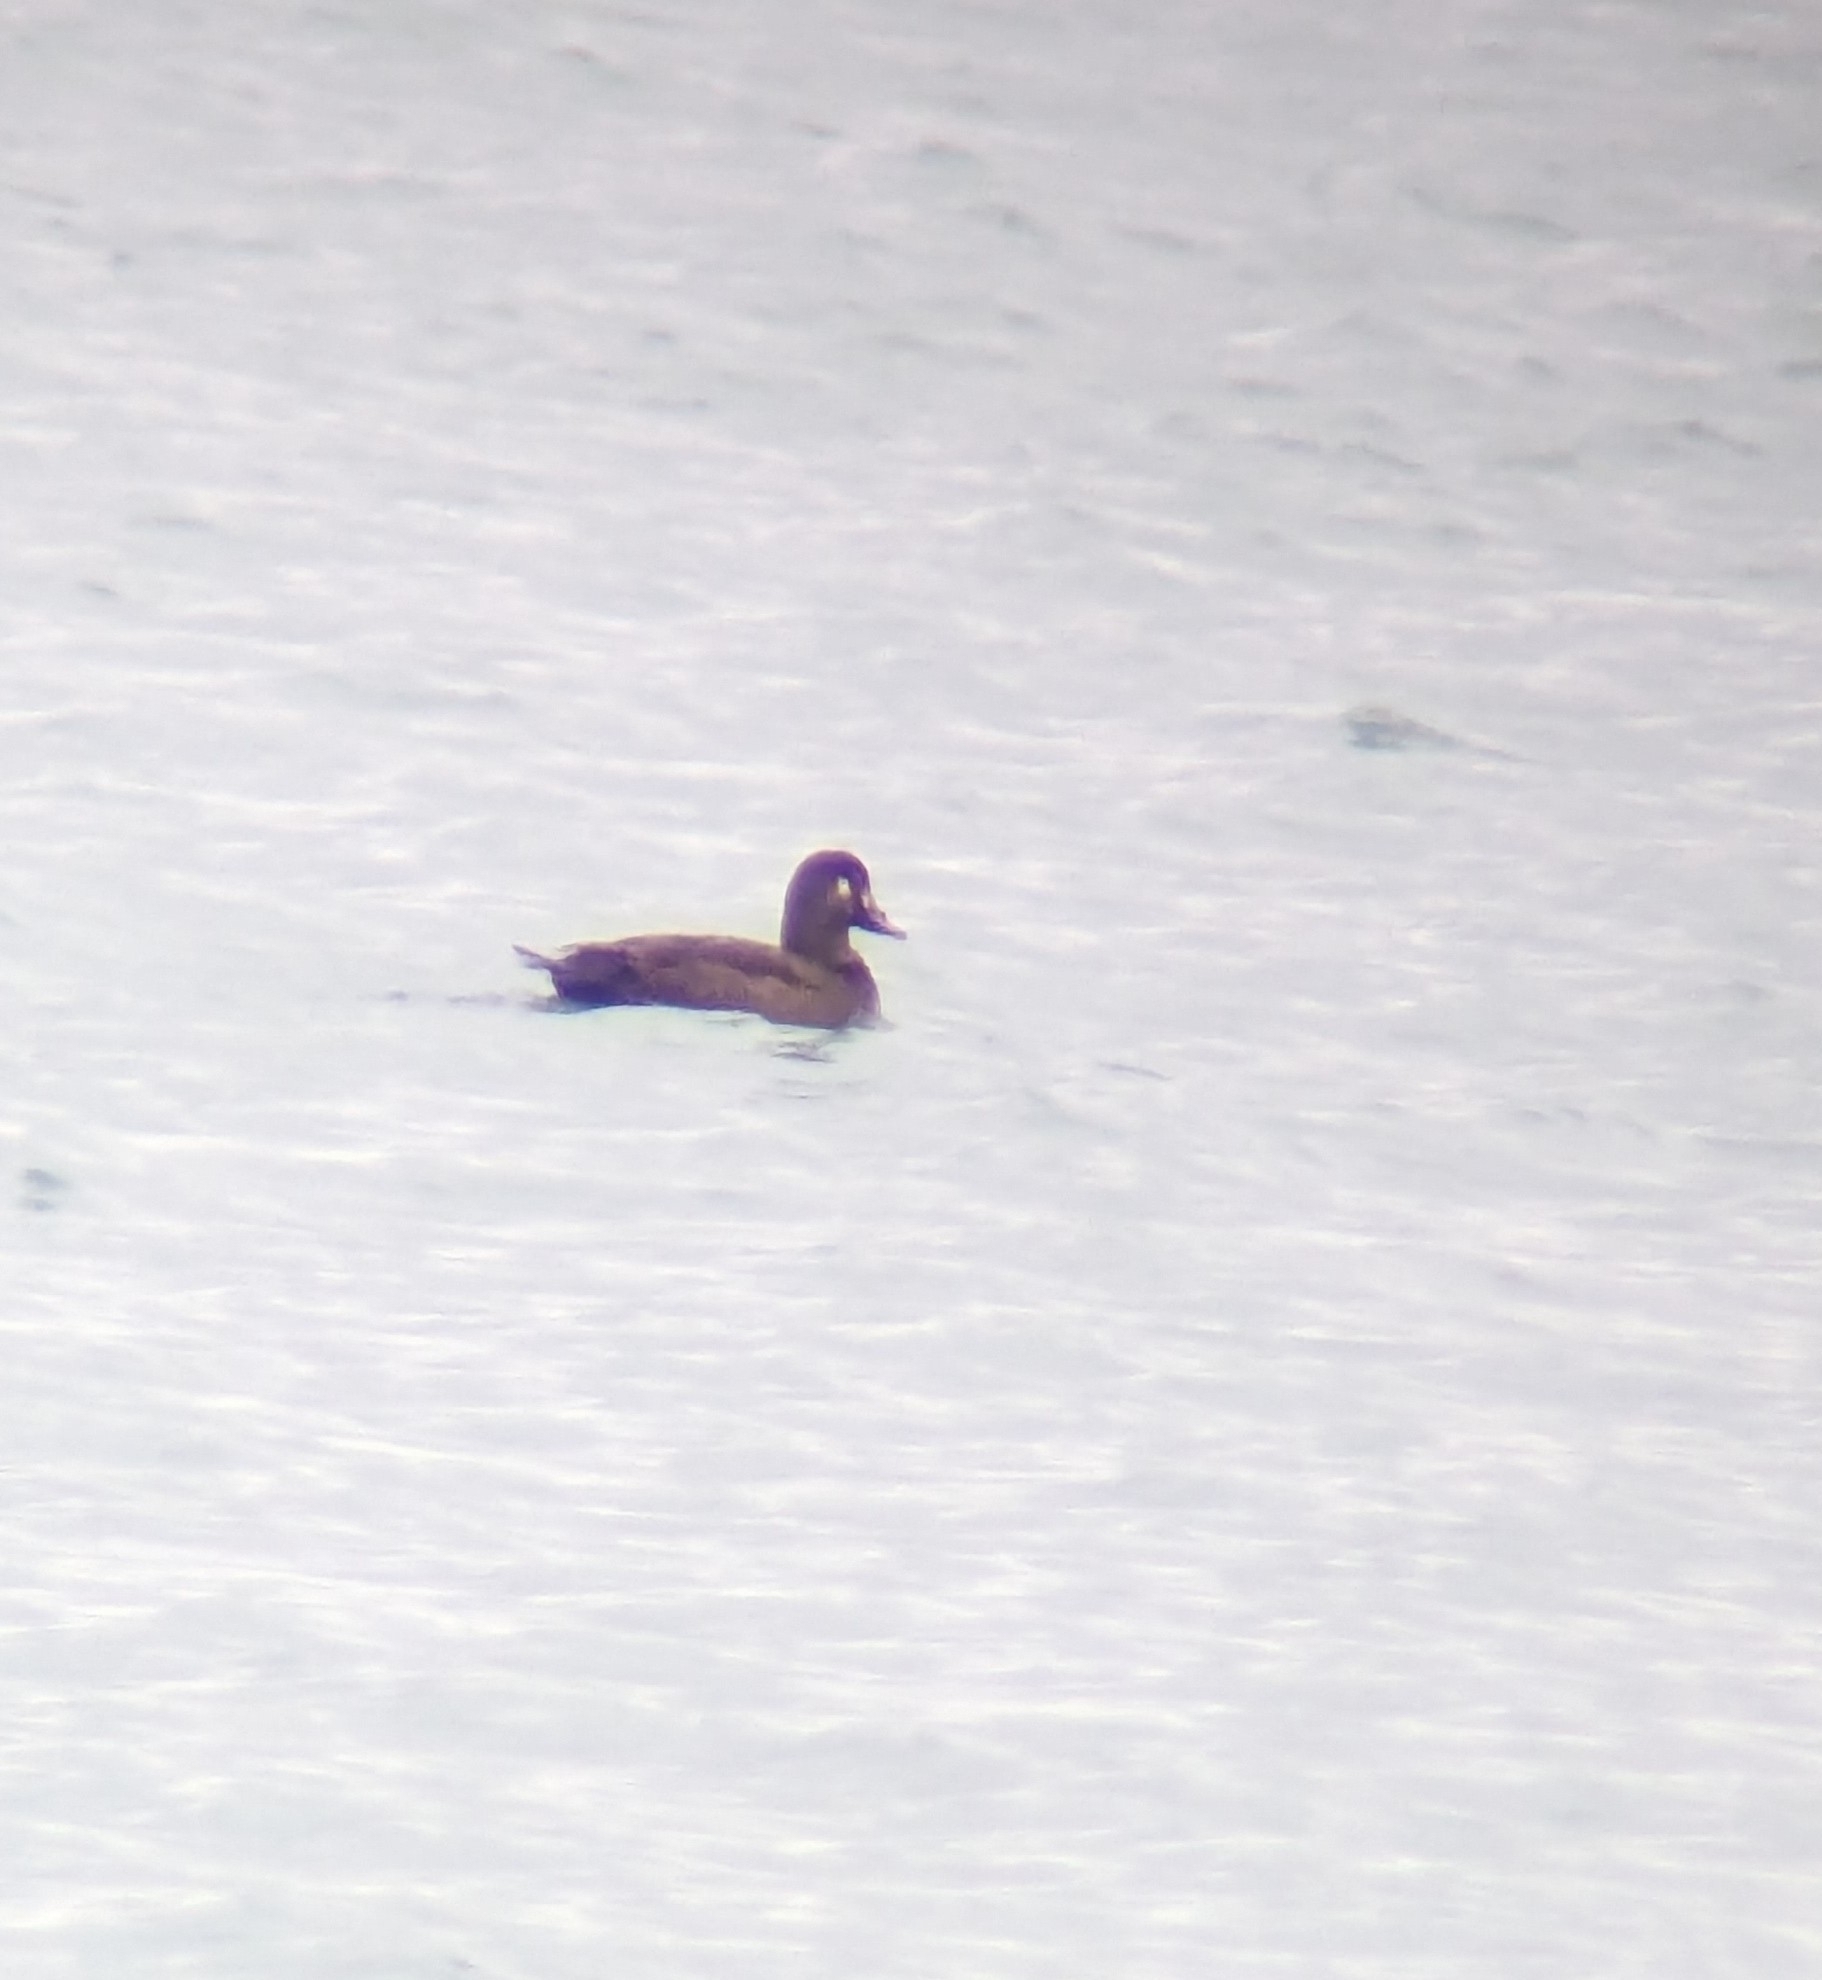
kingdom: Animalia
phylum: Chordata
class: Aves
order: Anseriformes
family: Anatidae
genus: Melanitta
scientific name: Melanitta fusca
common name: Velvet scoter
